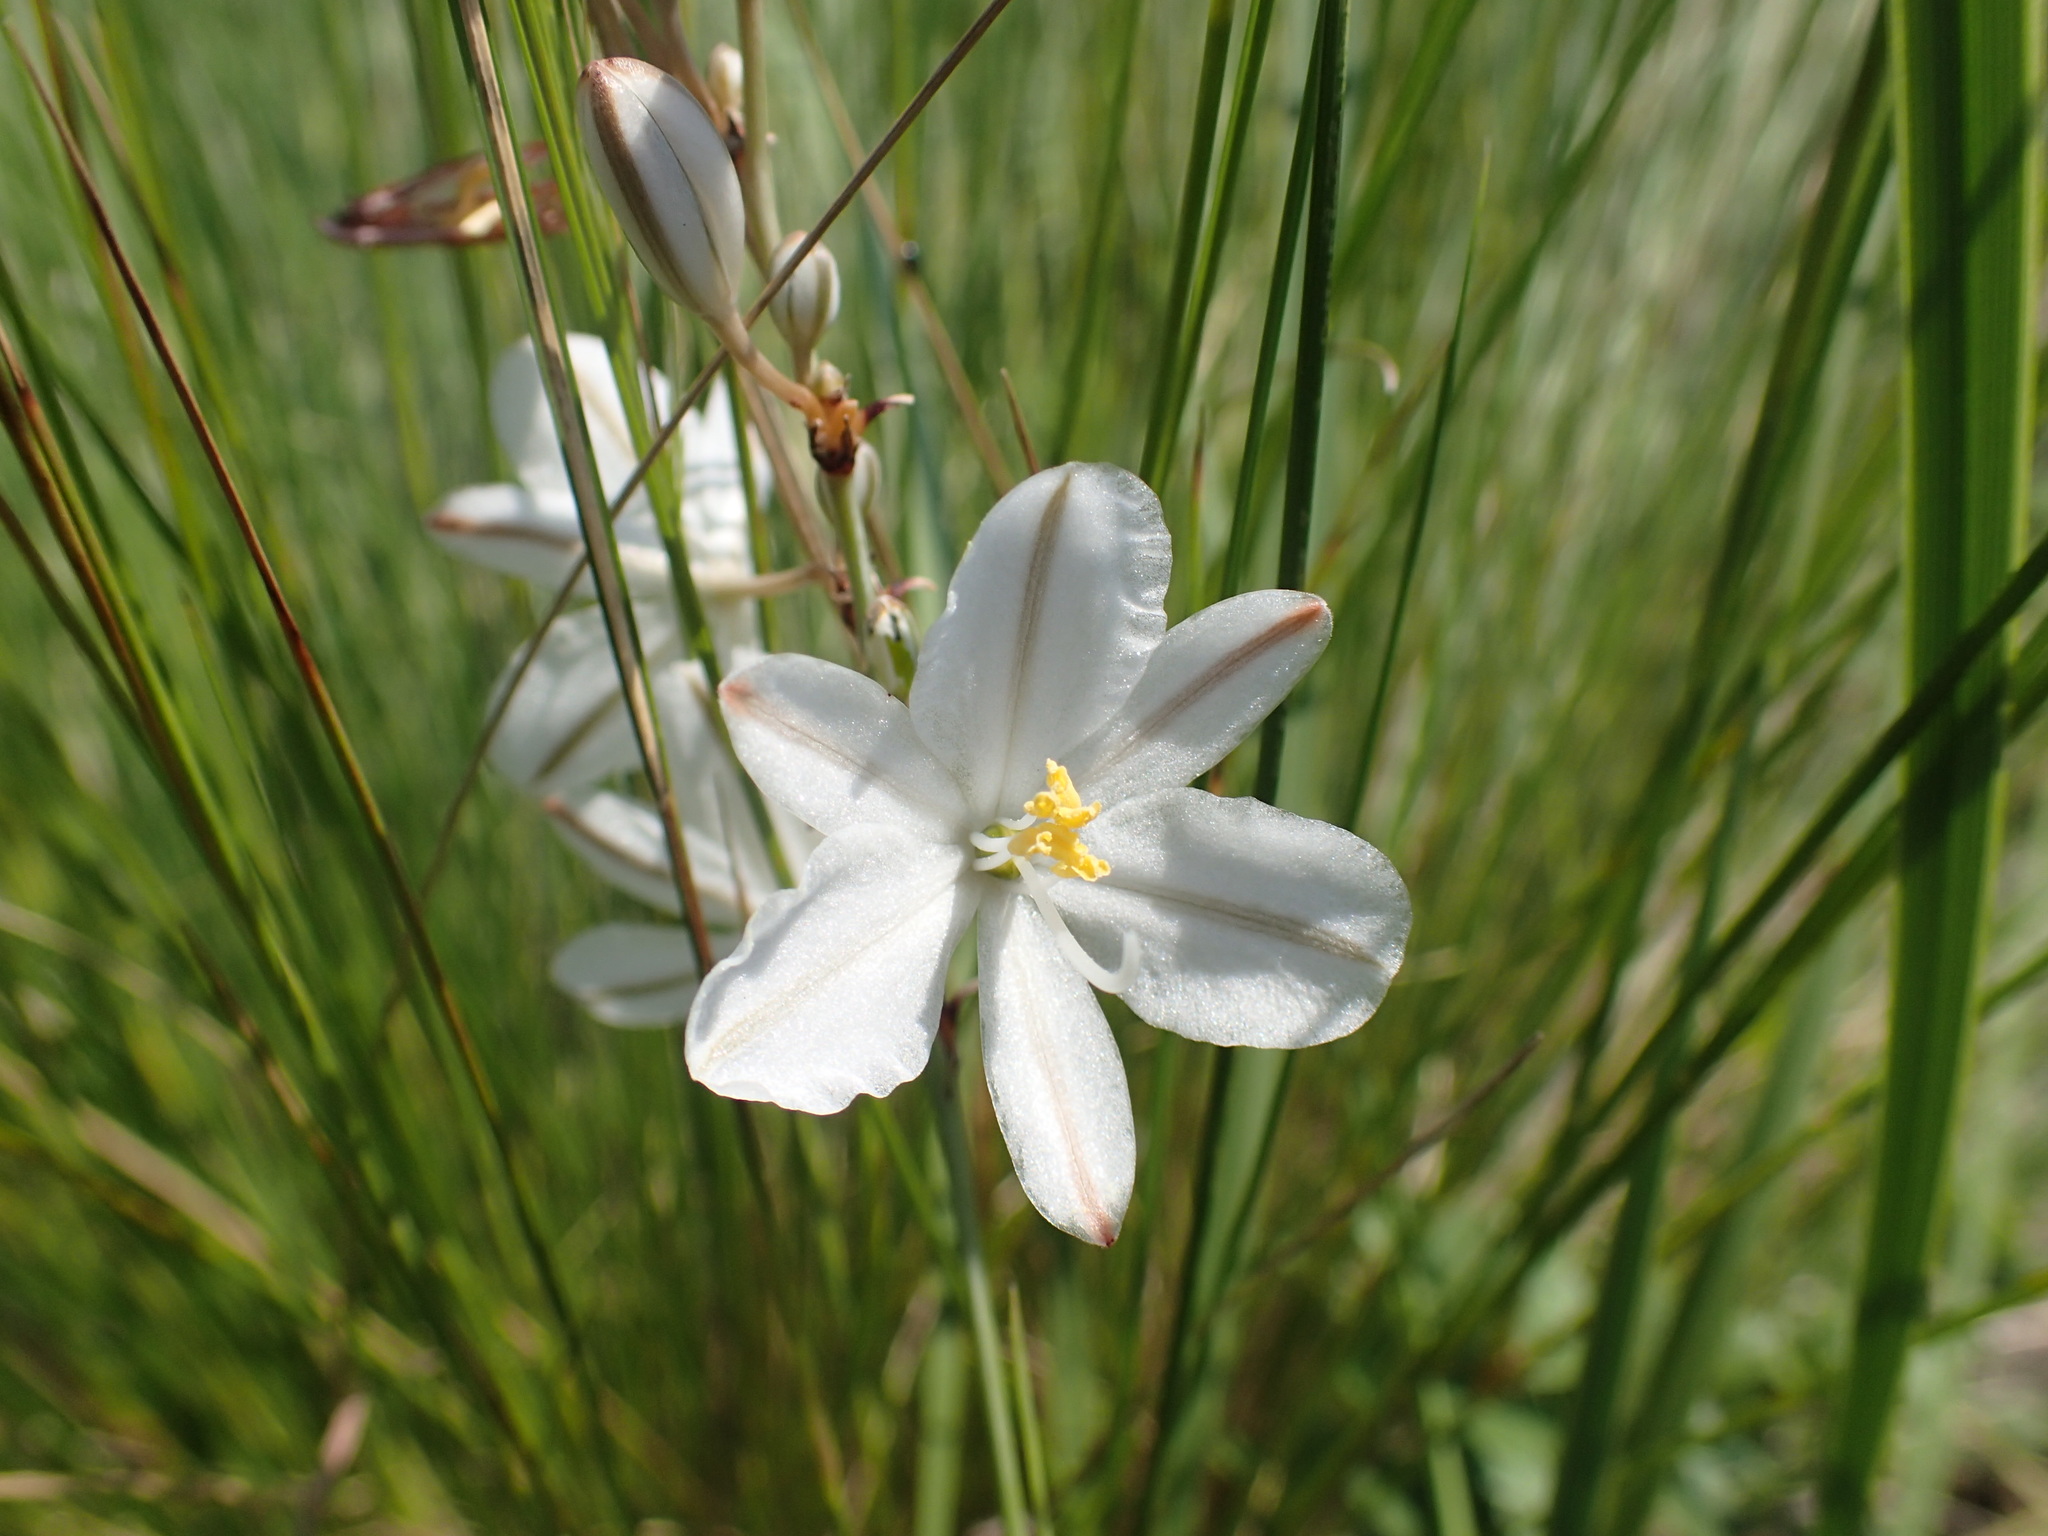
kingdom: Plantae
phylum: Tracheophyta
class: Liliopsida
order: Asparagales
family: Asparagaceae
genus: Chlorophytum
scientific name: Chlorophytum cooperi
